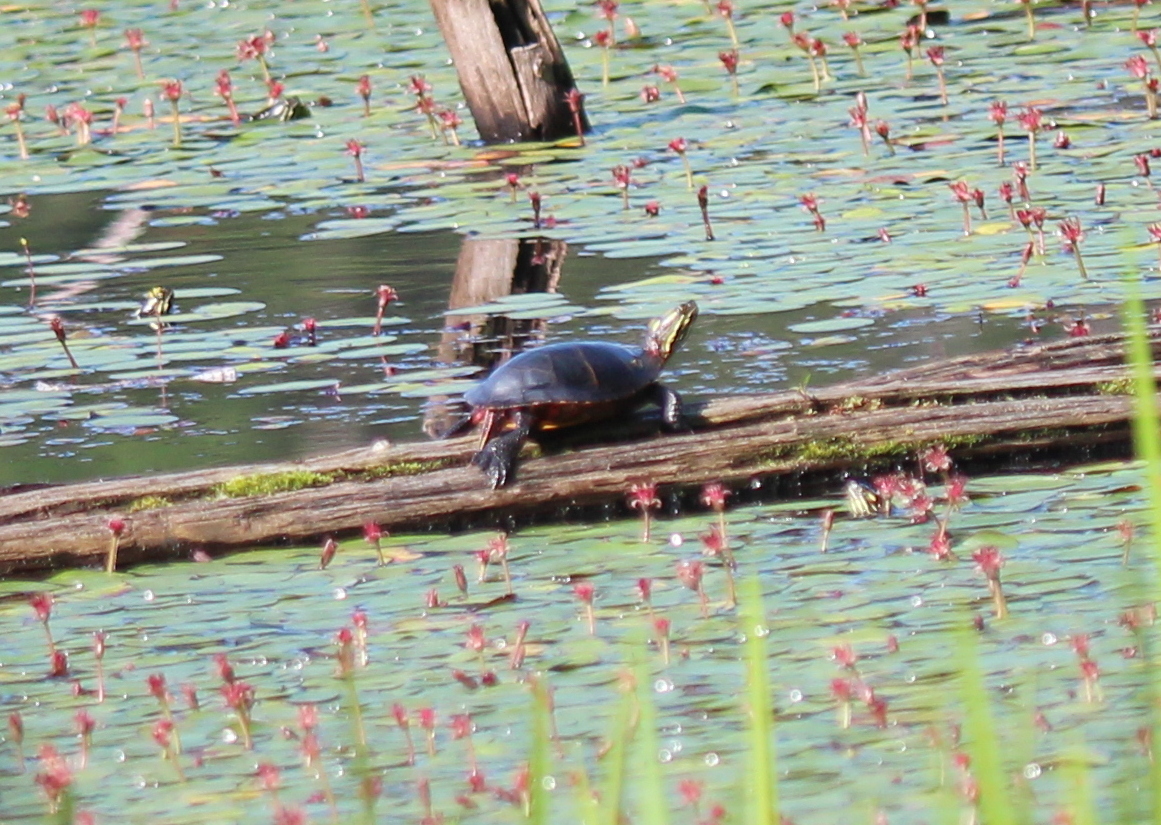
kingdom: Animalia
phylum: Chordata
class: Testudines
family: Emydidae
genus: Chrysemys
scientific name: Chrysemys picta
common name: Painted turtle
